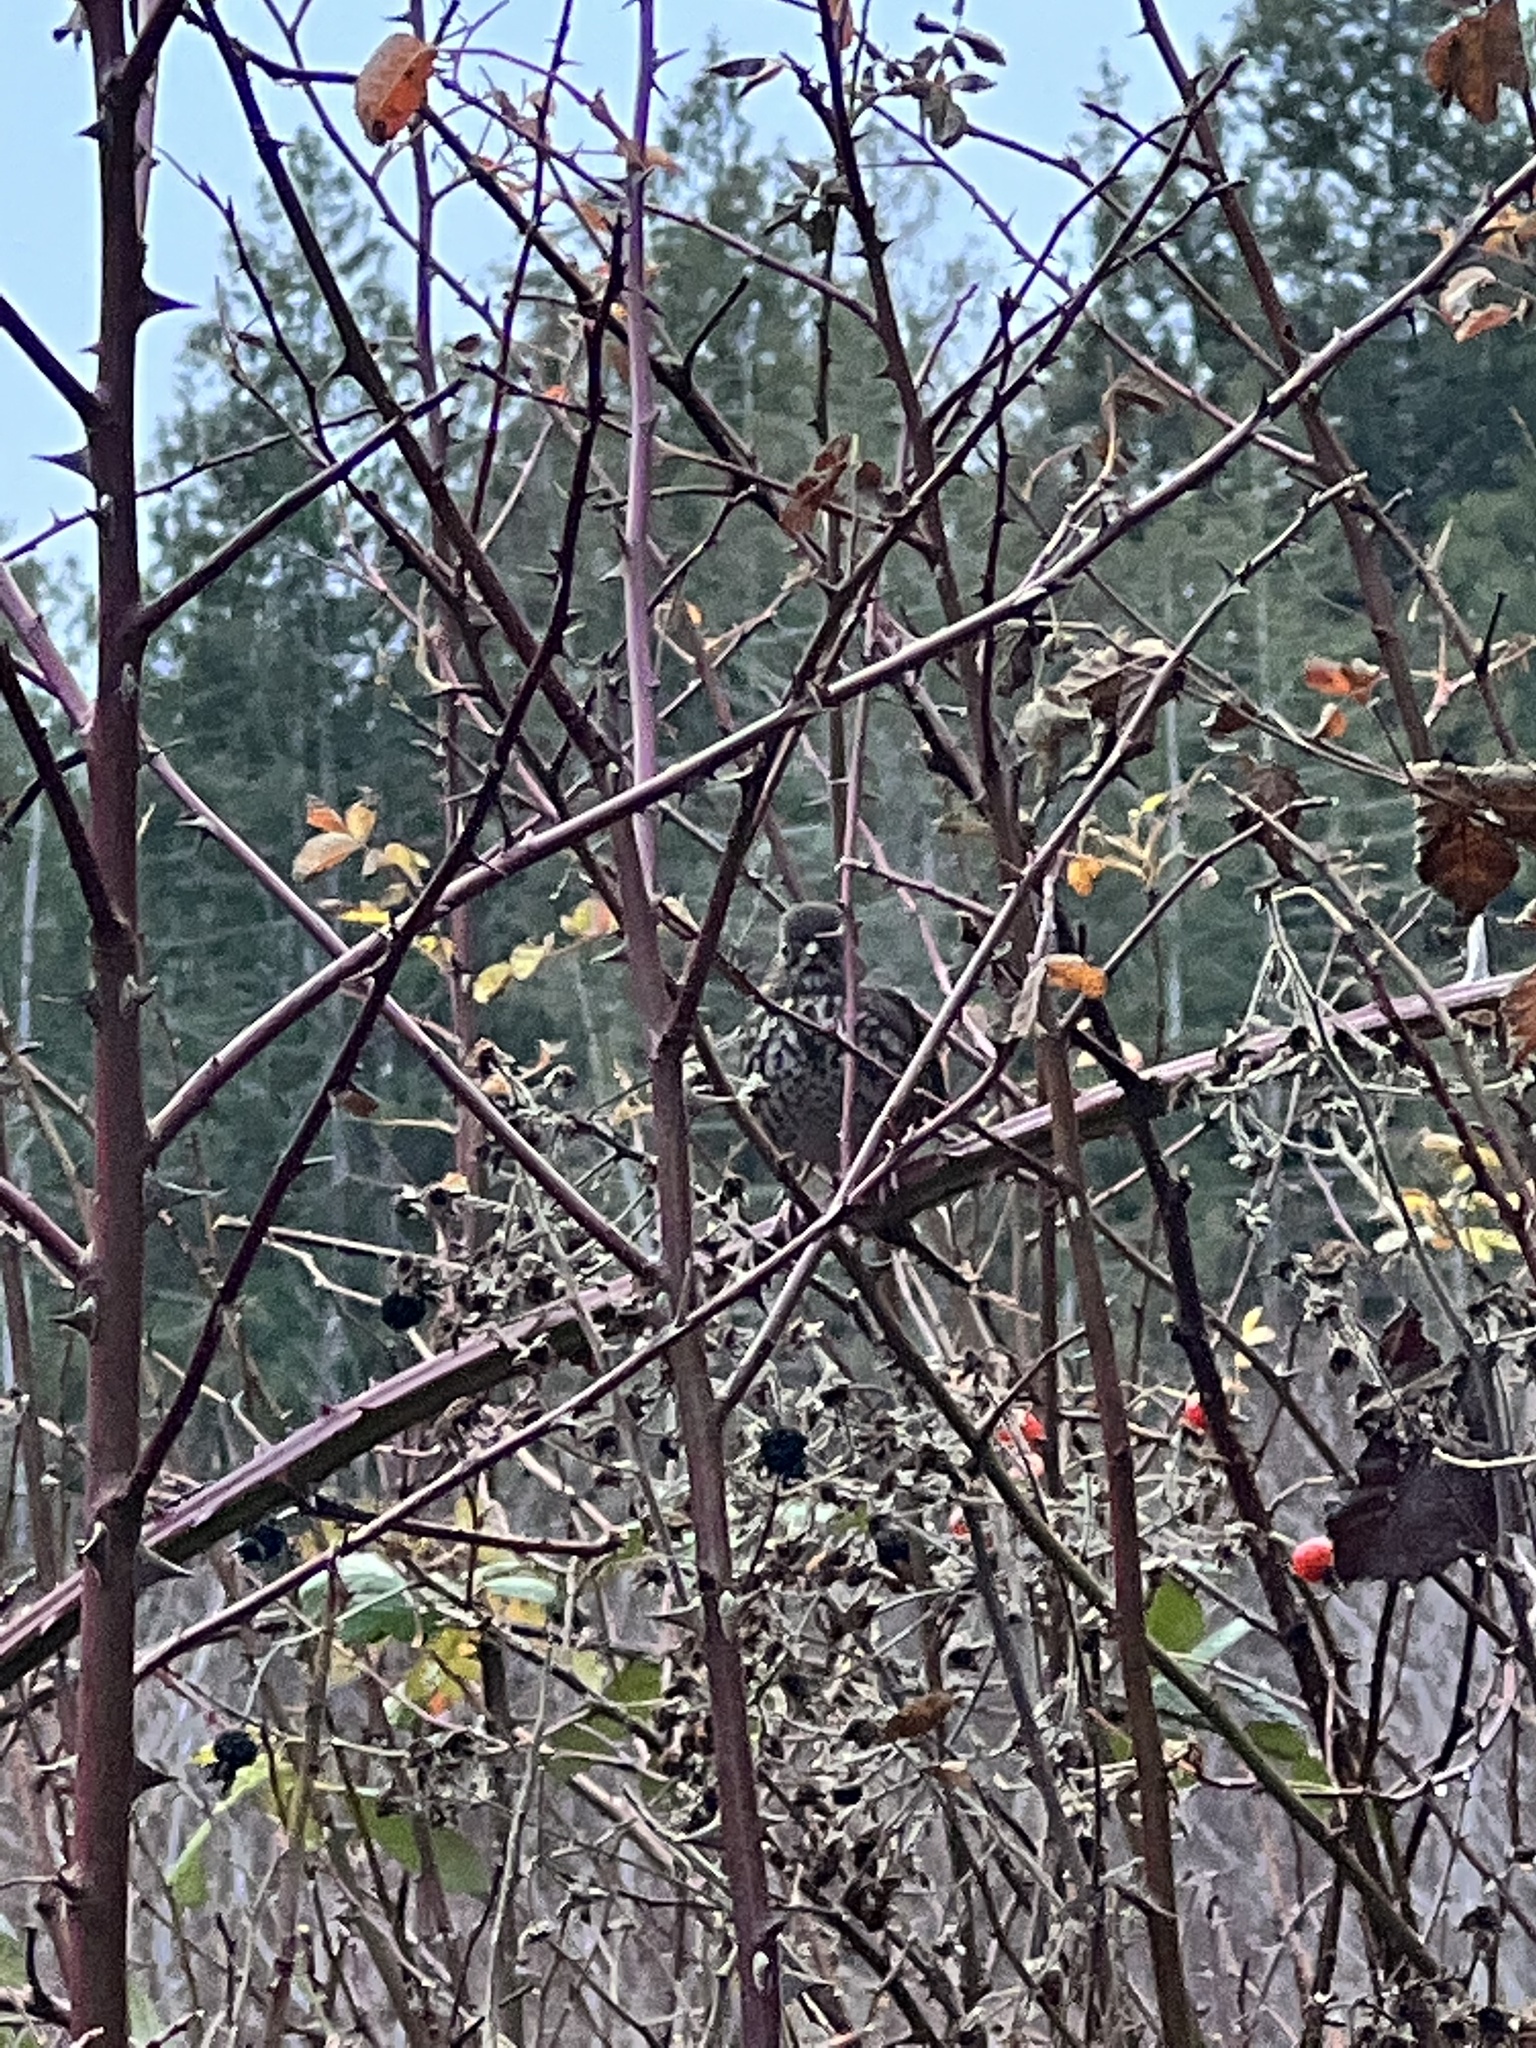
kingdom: Animalia
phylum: Chordata
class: Aves
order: Passeriformes
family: Passerellidae
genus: Passerella
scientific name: Passerella iliaca
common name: Fox sparrow
